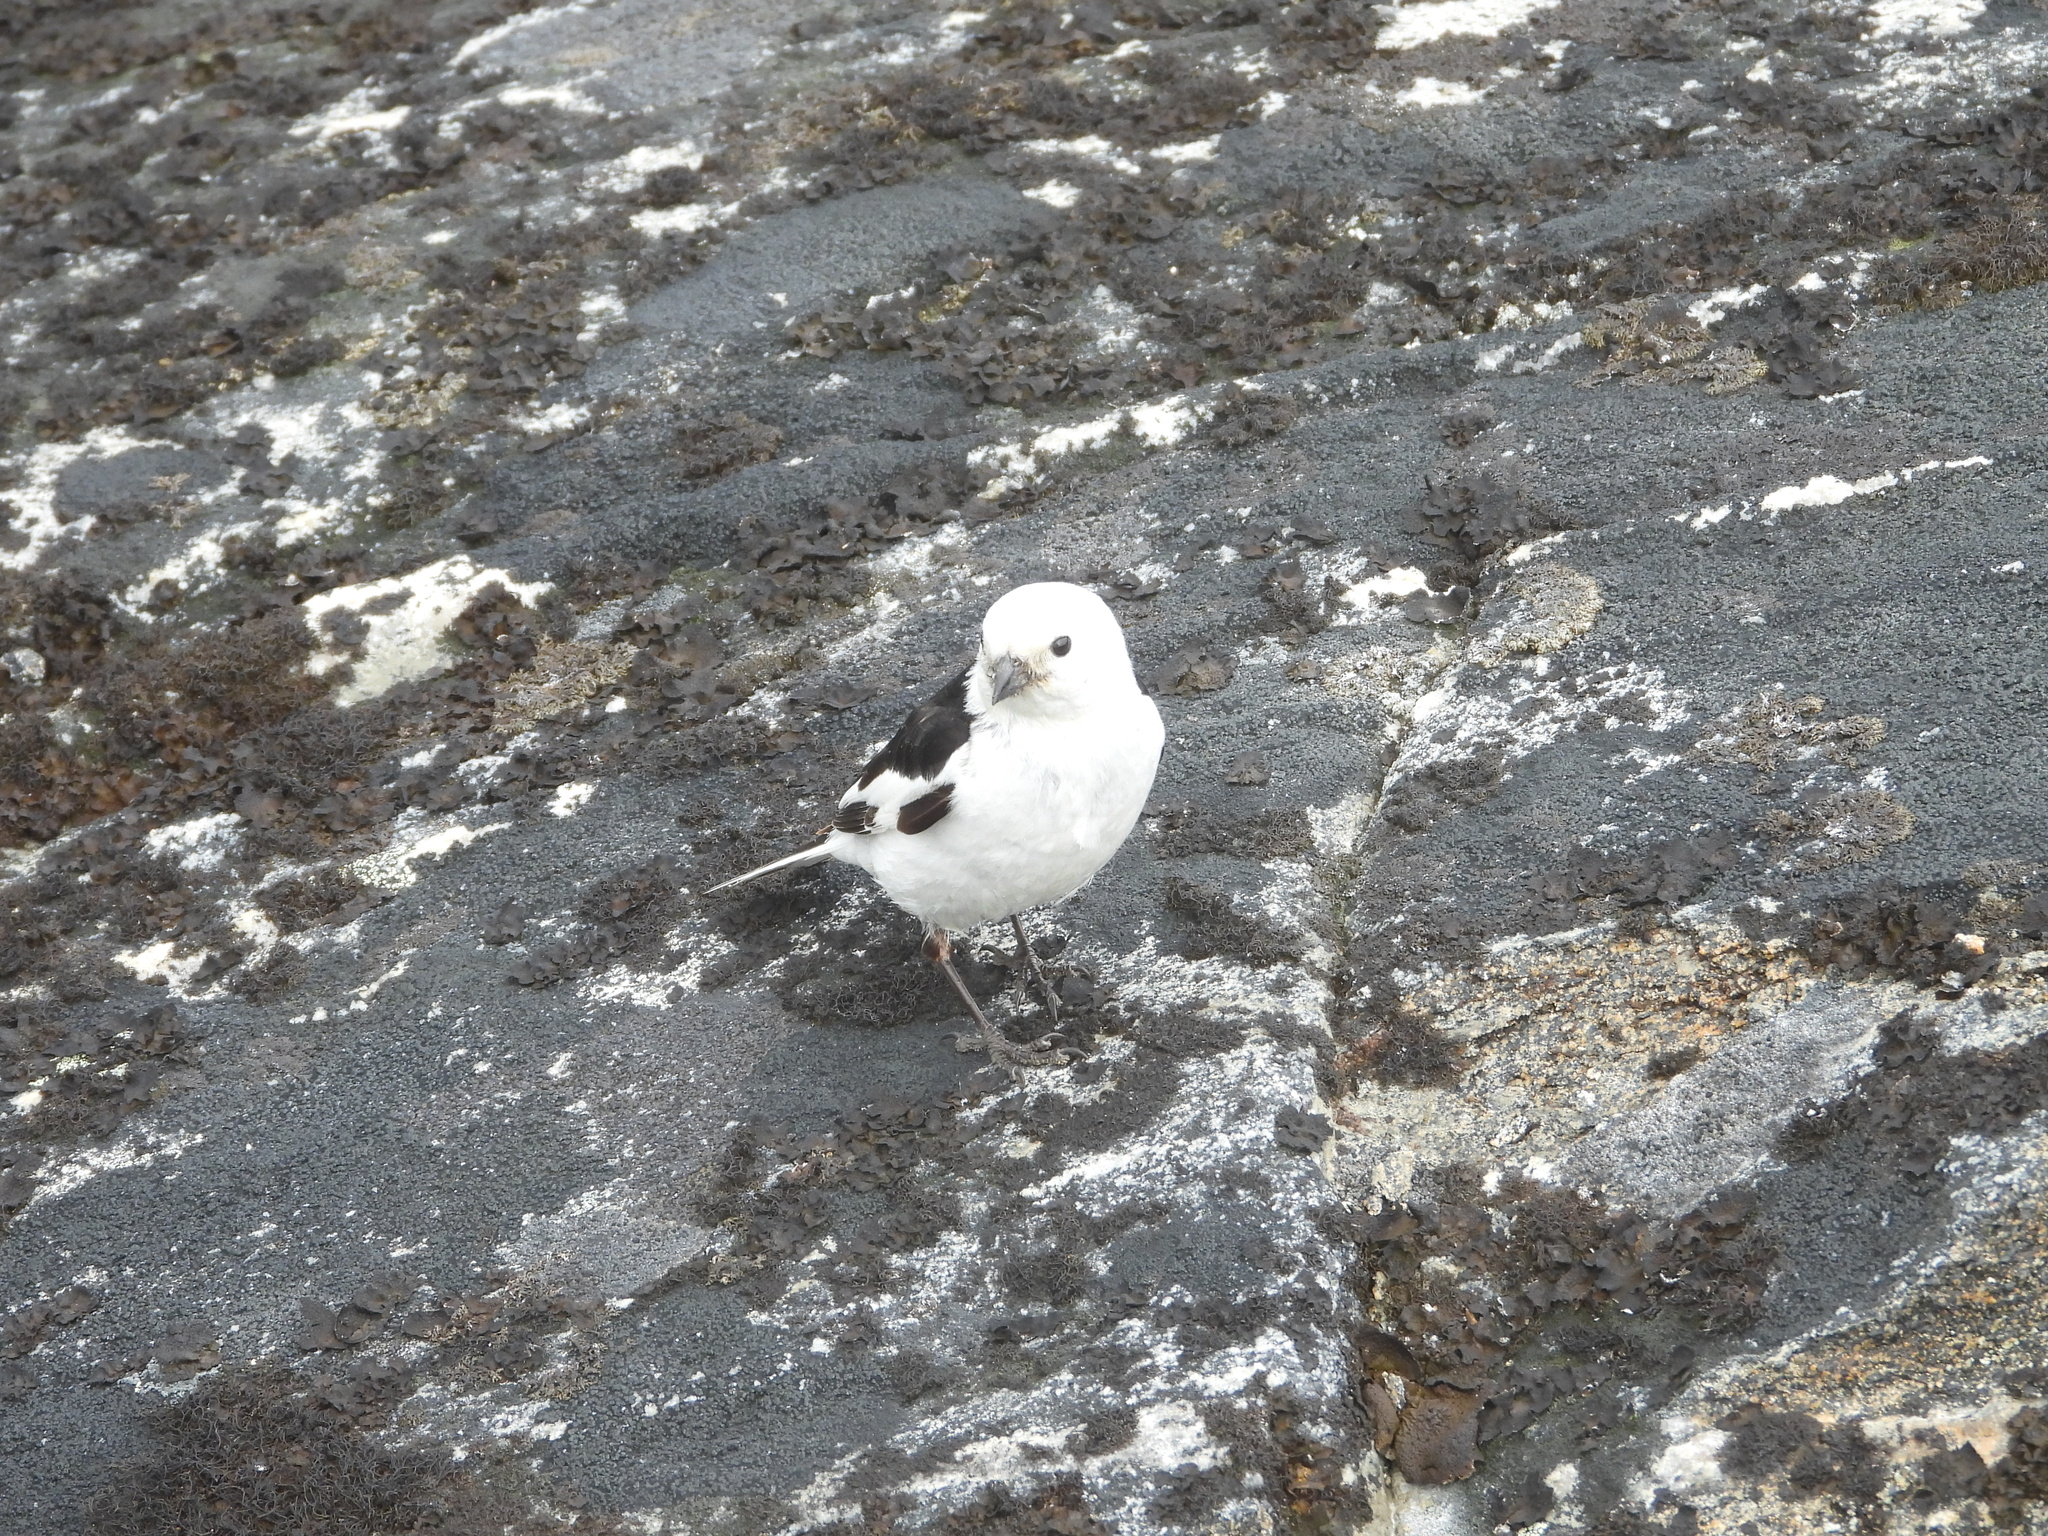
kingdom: Animalia
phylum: Chordata
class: Aves
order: Passeriformes
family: Calcariidae
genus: Plectrophenax
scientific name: Plectrophenax nivalis
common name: Snow bunting
